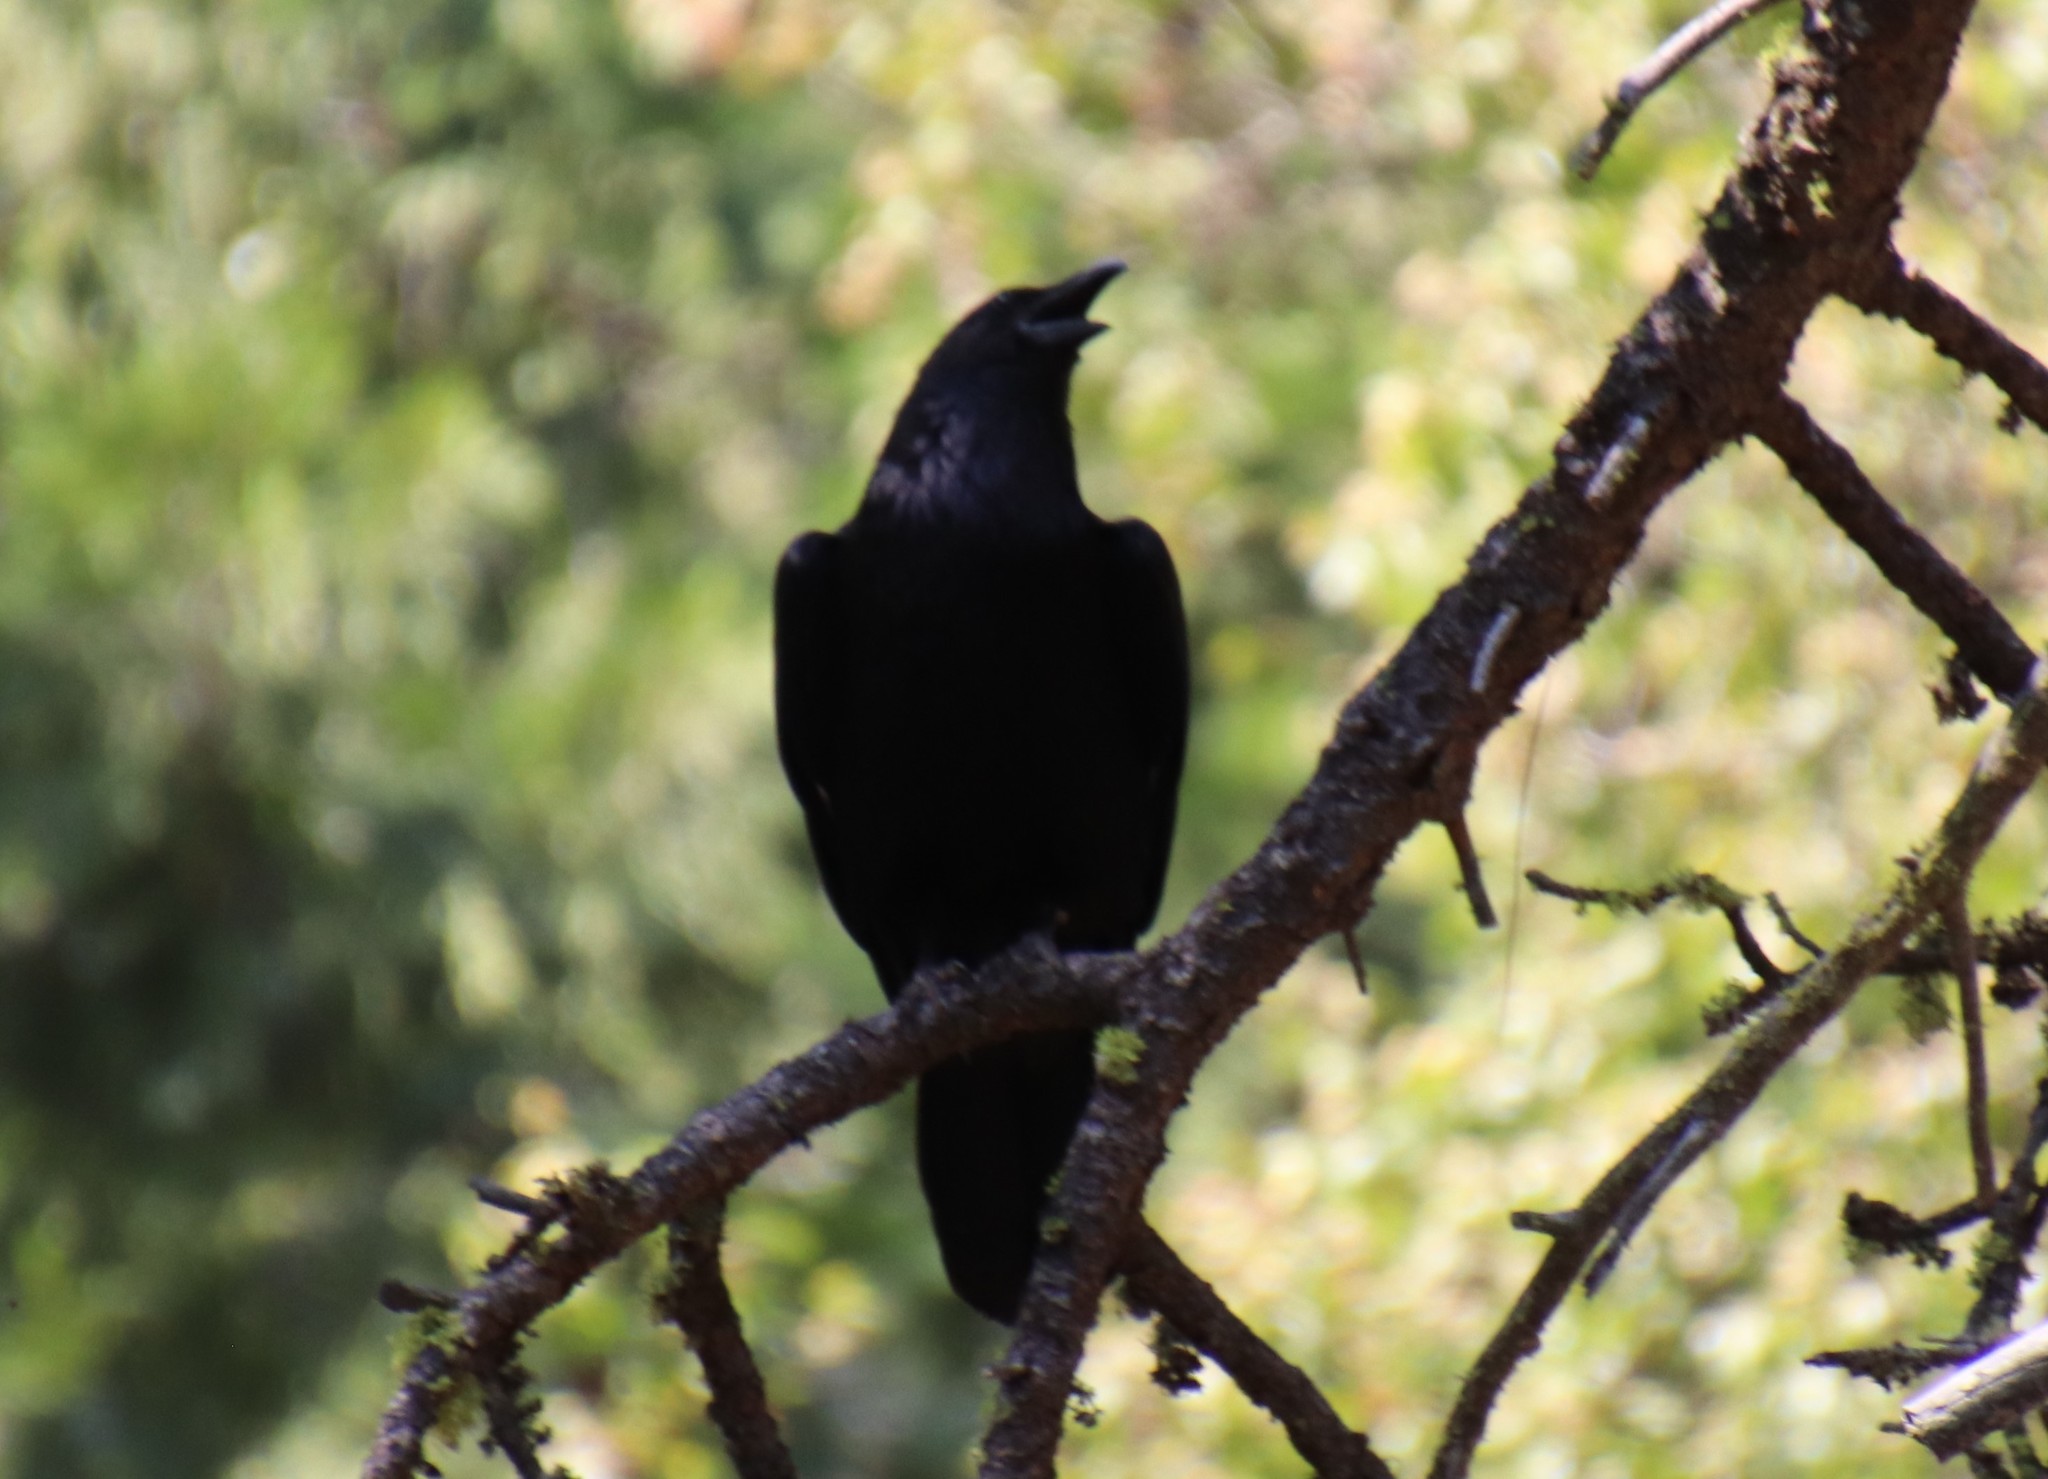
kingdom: Animalia
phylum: Chordata
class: Aves
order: Passeriformes
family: Corvidae
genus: Corvus
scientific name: Corvus corax
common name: Common raven
